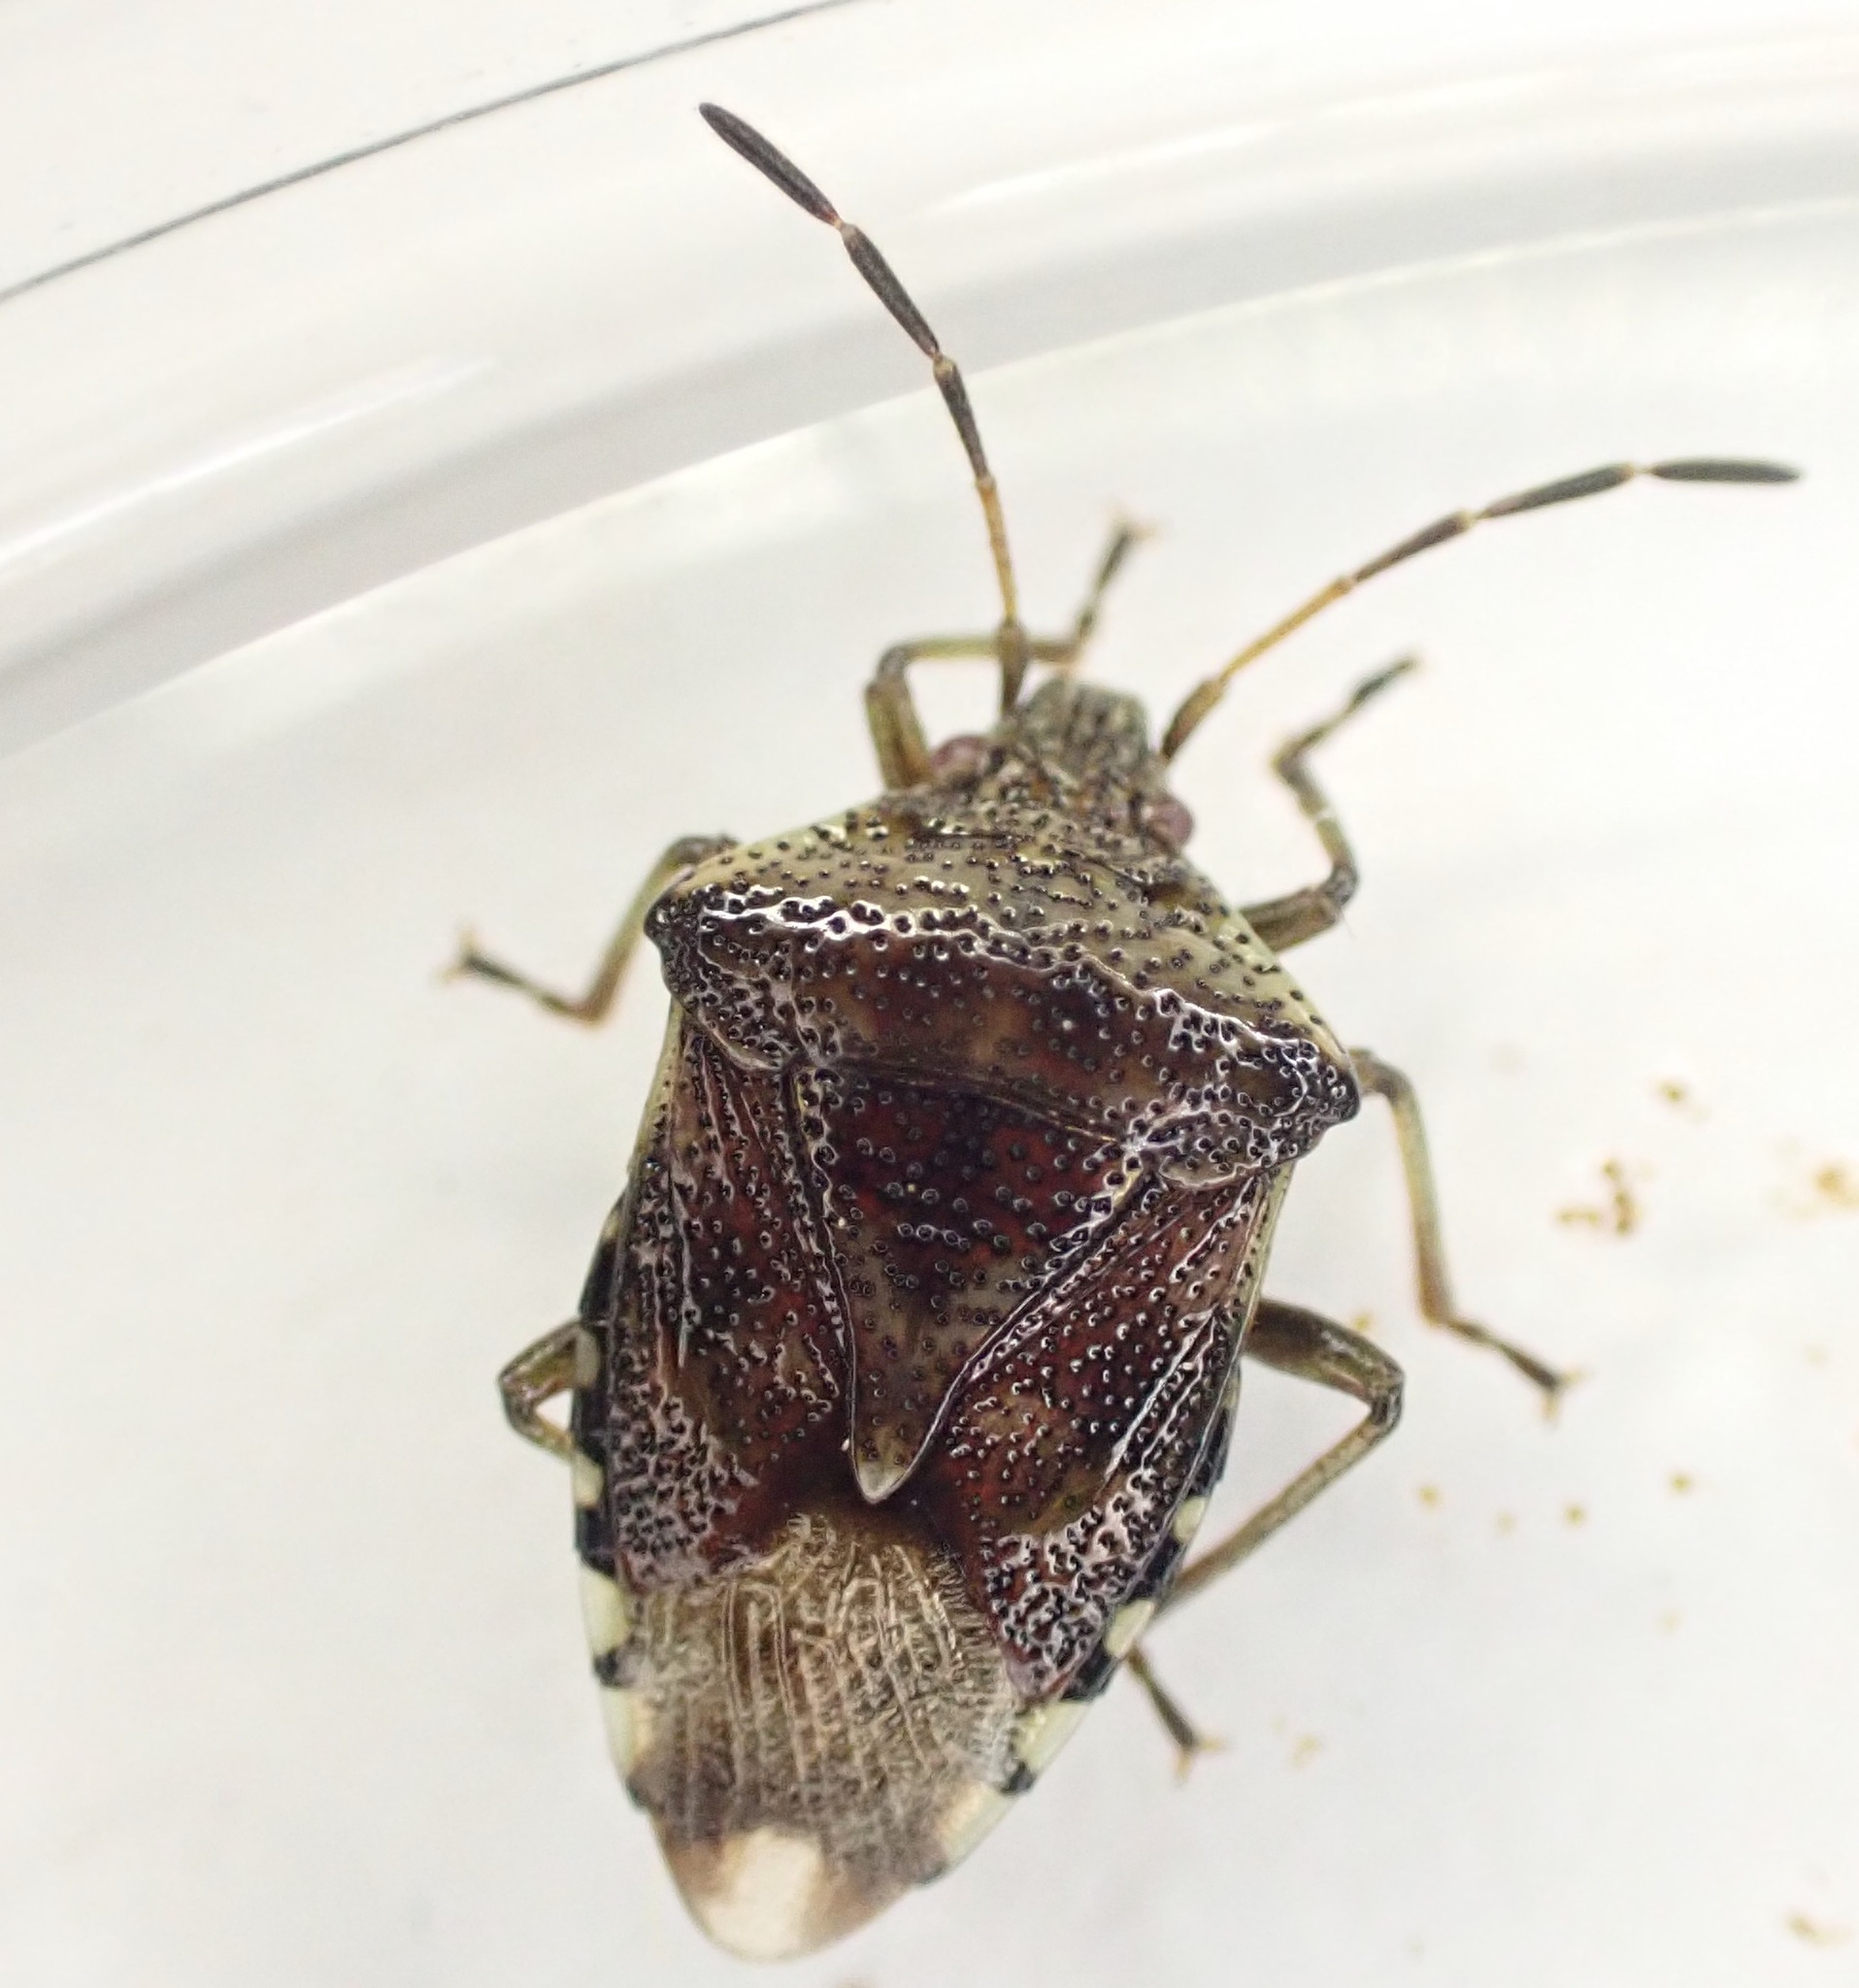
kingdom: Animalia
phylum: Arthropoda
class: Insecta
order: Hemiptera
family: Acanthosomatidae
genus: Elasmucha
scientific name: Elasmucha grisea
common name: Parent bug
